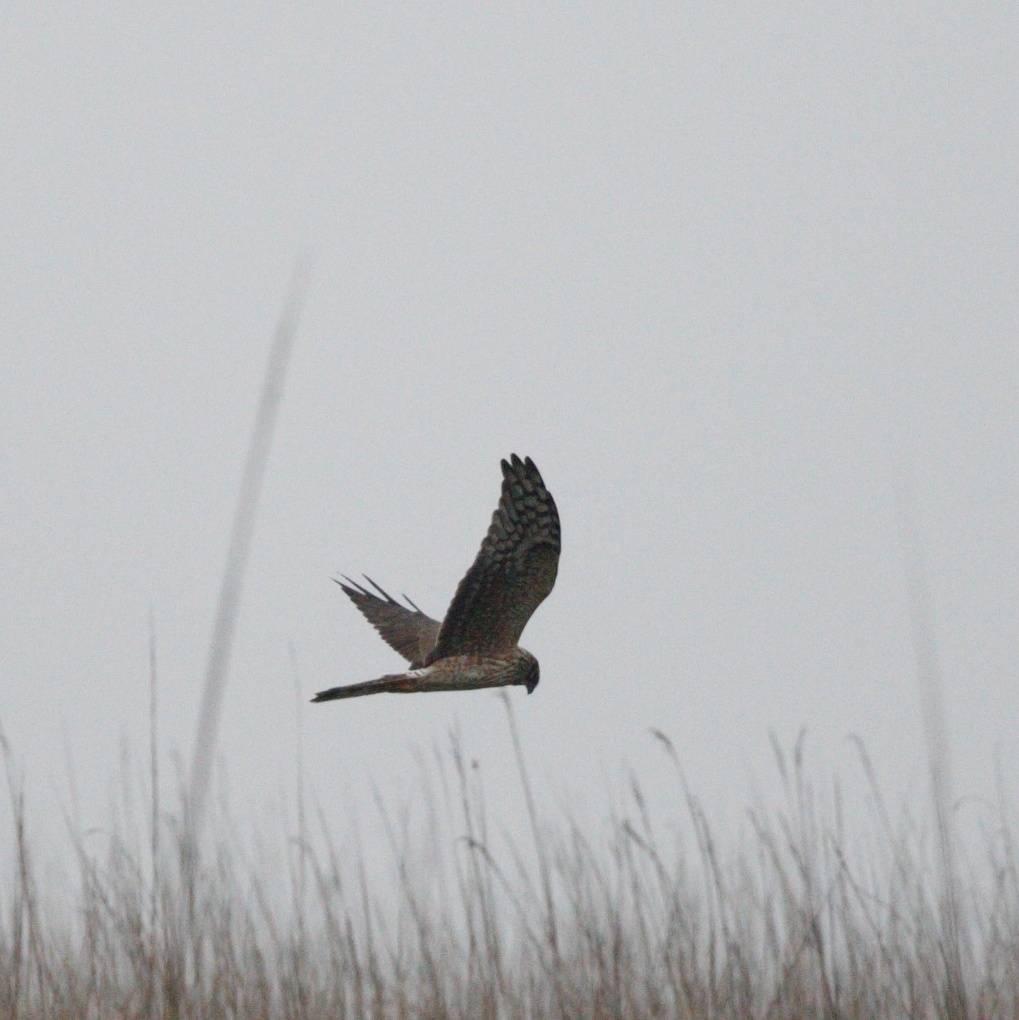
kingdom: Animalia
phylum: Chordata
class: Aves
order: Accipitriformes
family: Accipitridae
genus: Circus
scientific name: Circus macrourus
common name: Pallid harrier
